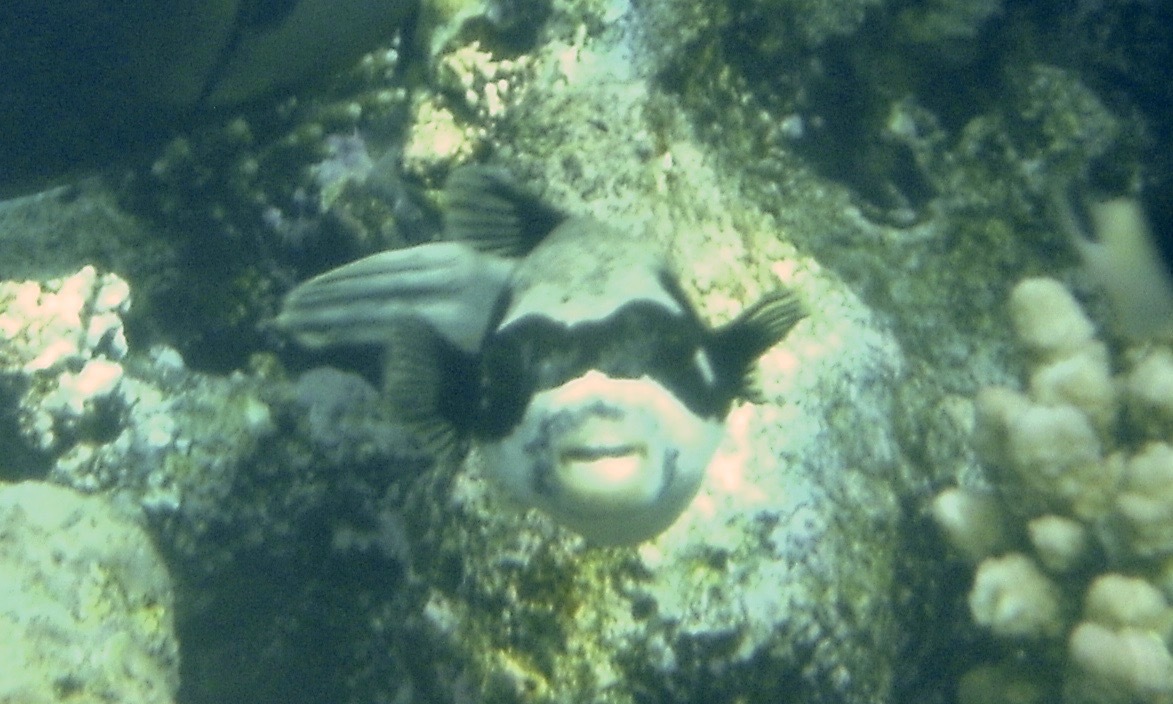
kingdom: Animalia
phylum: Chordata
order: Tetraodontiformes
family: Tetraodontidae
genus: Arothron
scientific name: Arothron diadematus
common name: Masked puffer
